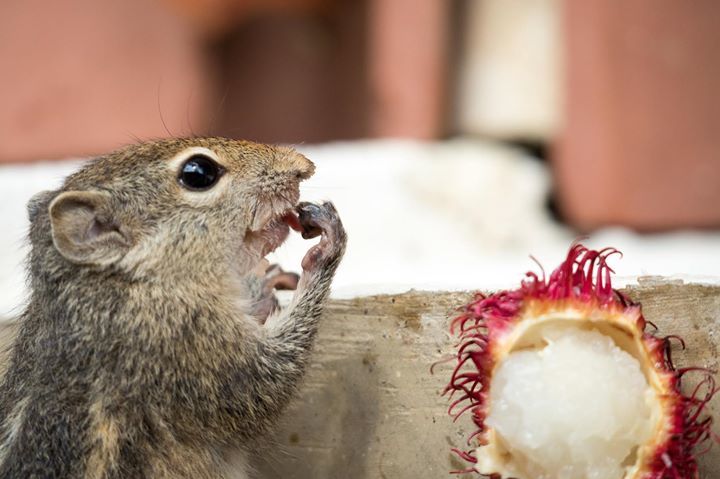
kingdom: Animalia
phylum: Chordata
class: Mammalia
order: Rodentia
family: Sciuridae
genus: Funambulus
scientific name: Funambulus palmarum
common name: Indian palm squirrel
